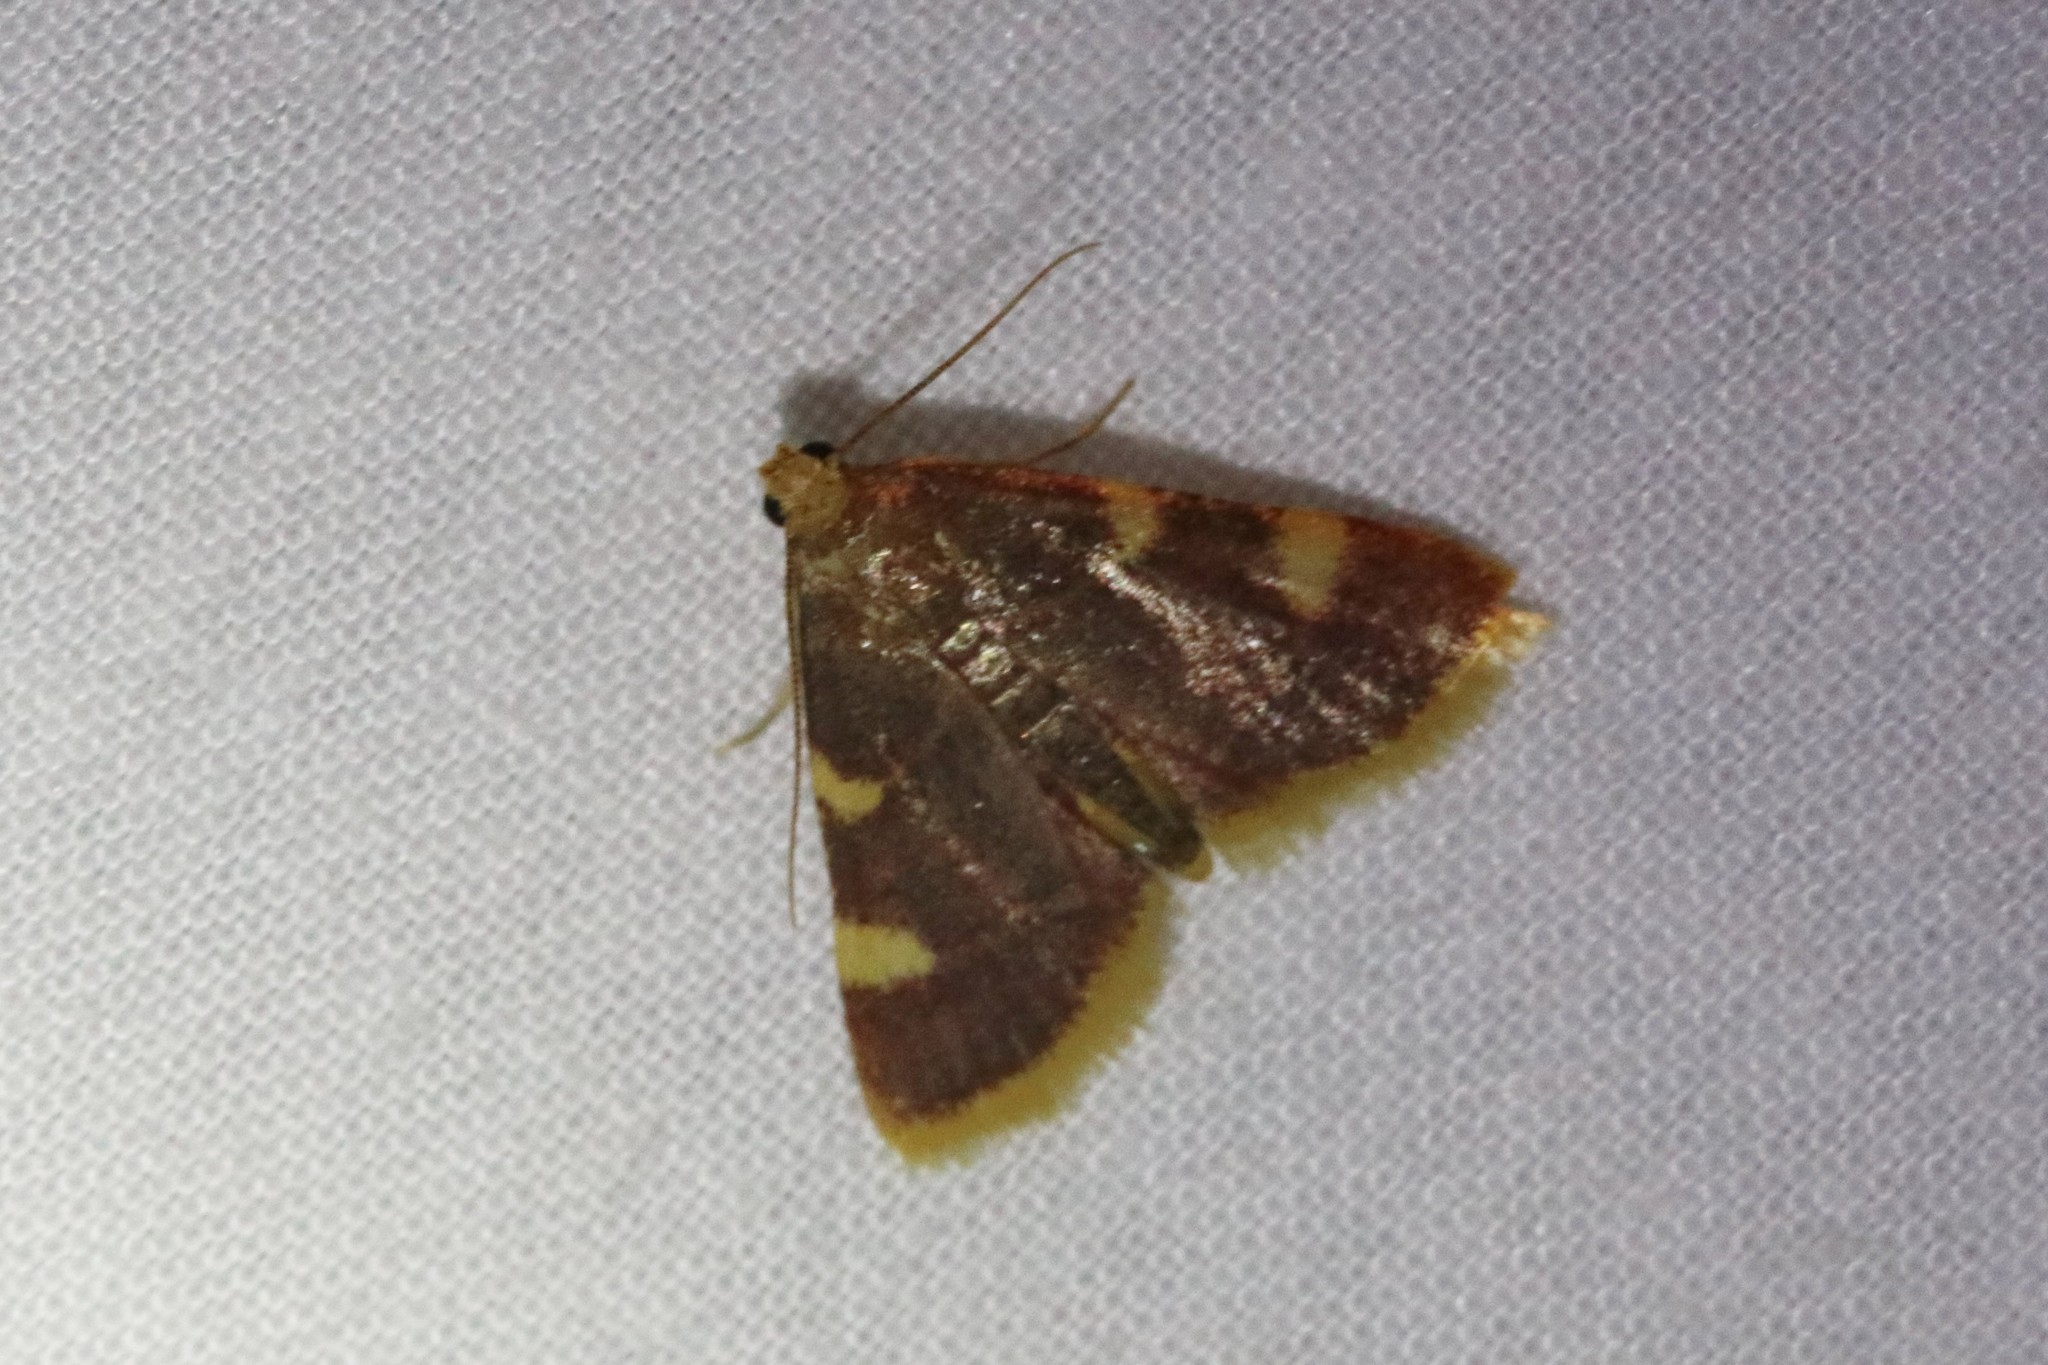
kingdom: Animalia
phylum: Arthropoda
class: Insecta
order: Lepidoptera
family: Pyralidae
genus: Hypsopygia
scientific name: Hypsopygia costalis
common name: Gold triangle
